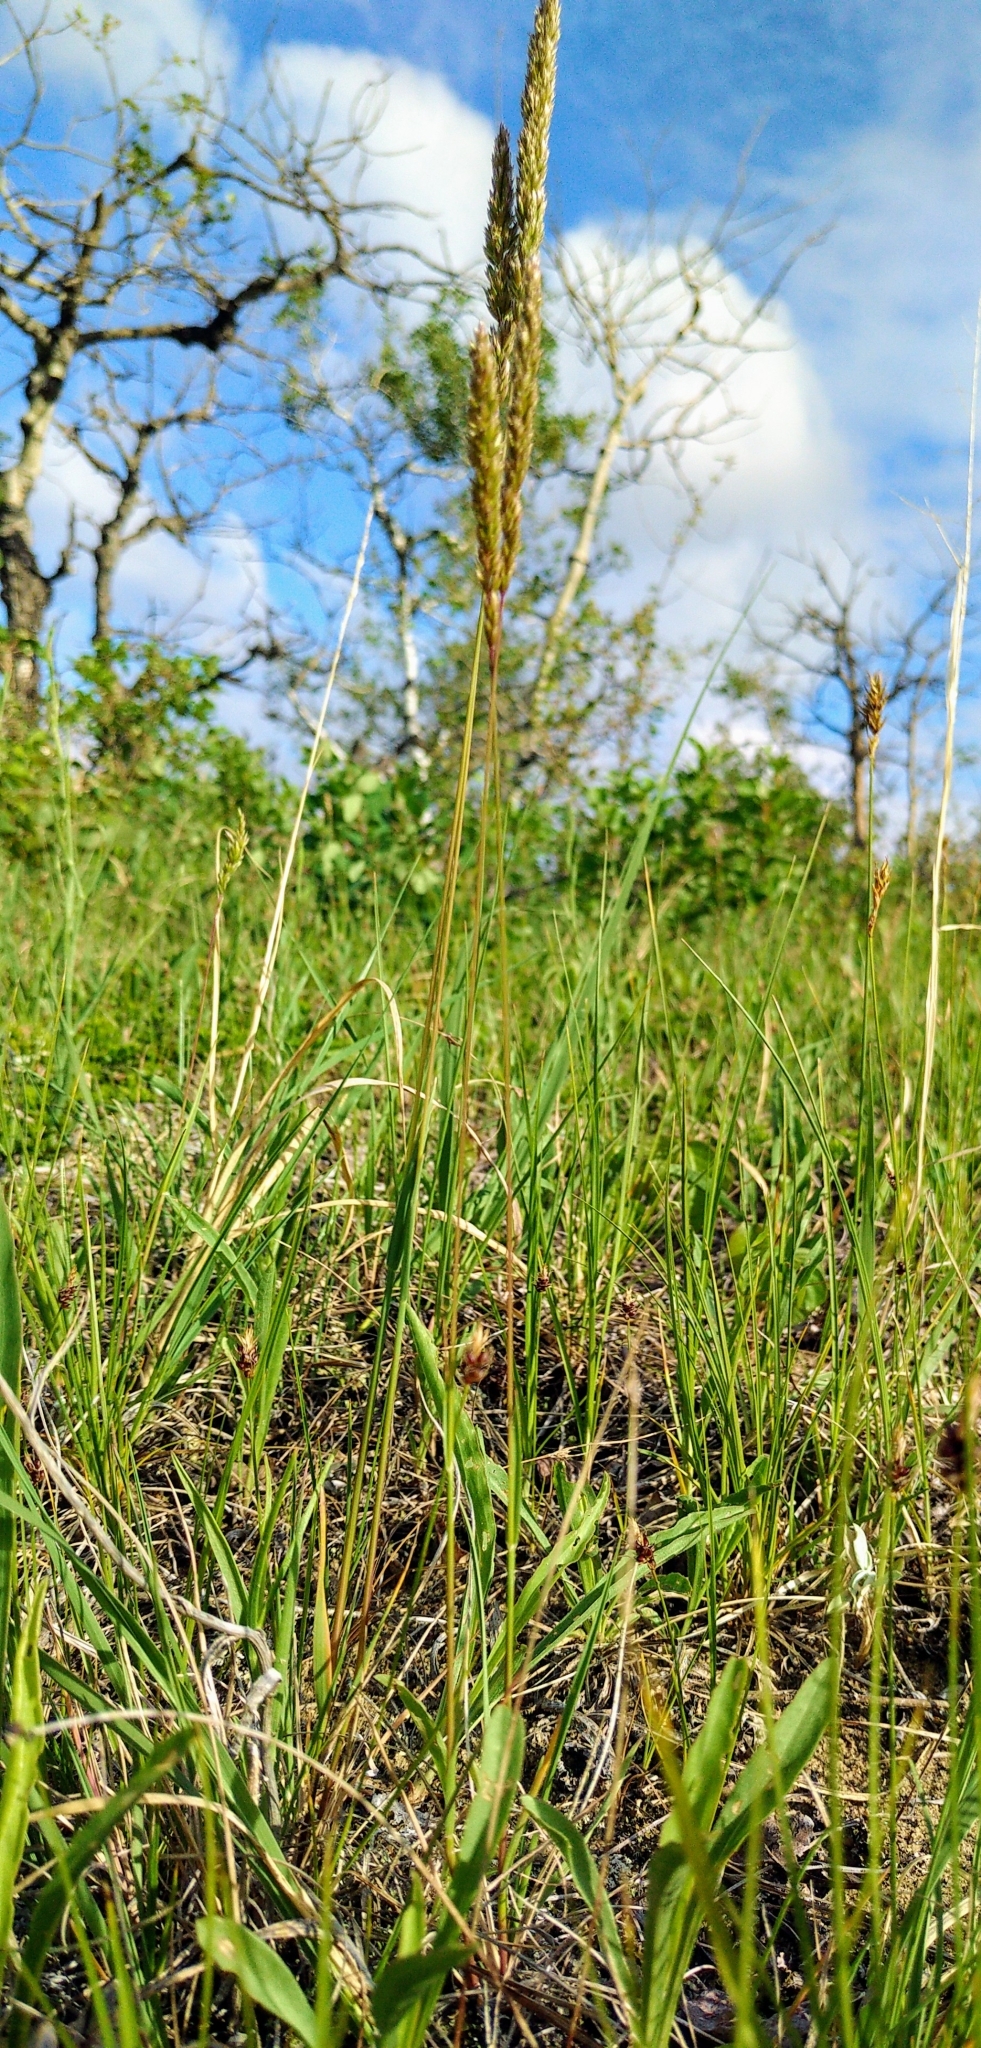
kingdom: Plantae
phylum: Tracheophyta
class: Liliopsida
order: Poales
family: Poaceae
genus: Koeleria
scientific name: Koeleria macrantha
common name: Crested hair-grass
